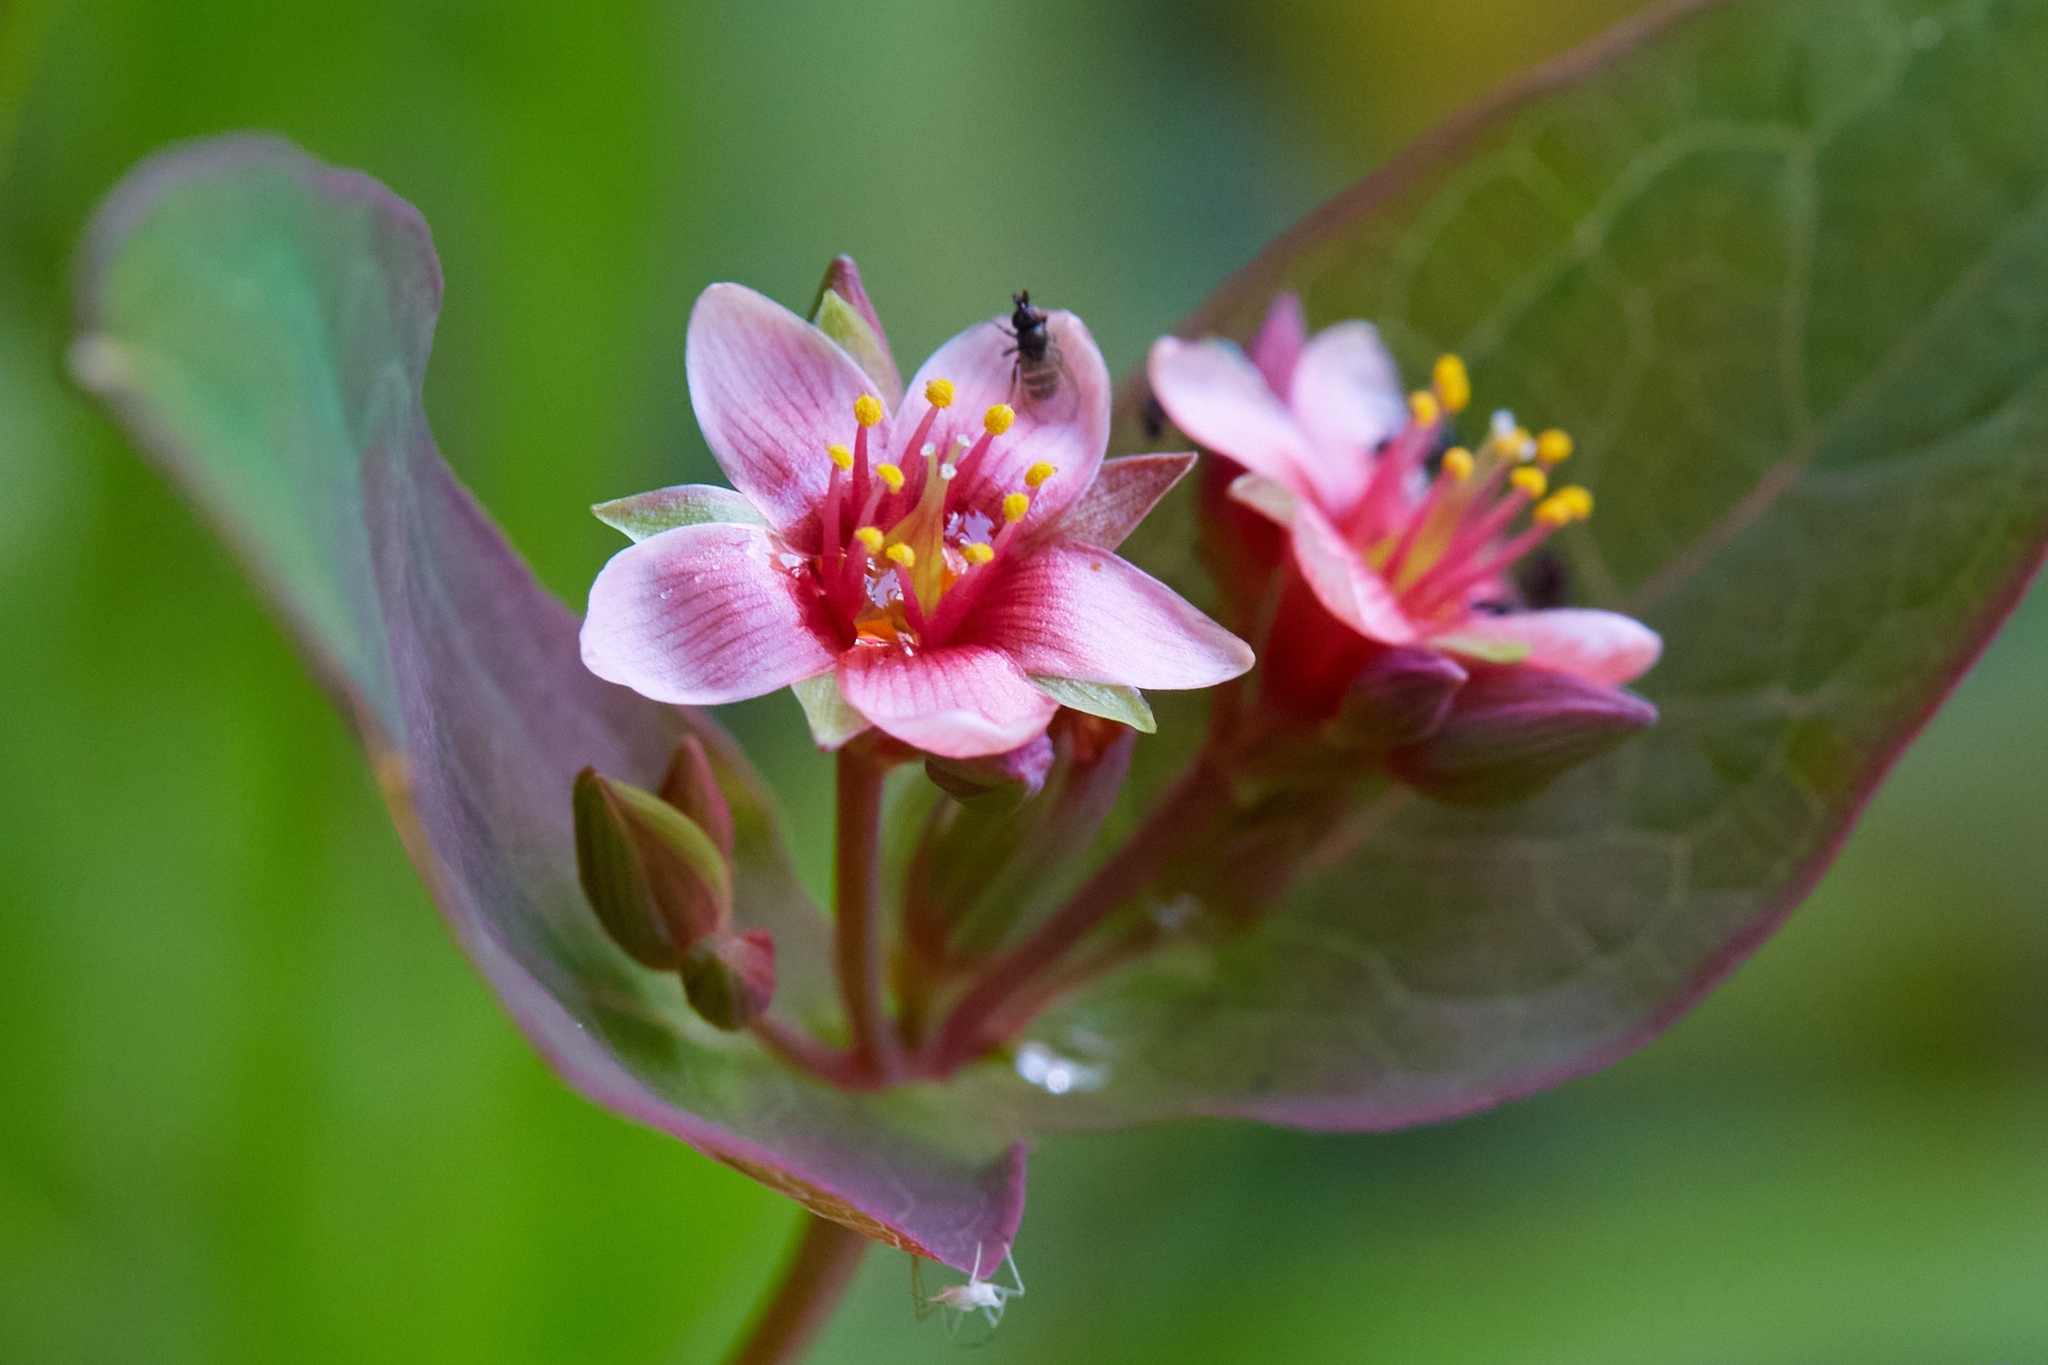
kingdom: Plantae
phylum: Tracheophyta
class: Magnoliopsida
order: Malpighiales
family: Hypericaceae
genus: Triadenum
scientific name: Triadenum virginicum
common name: Marsh st. john's-wort
